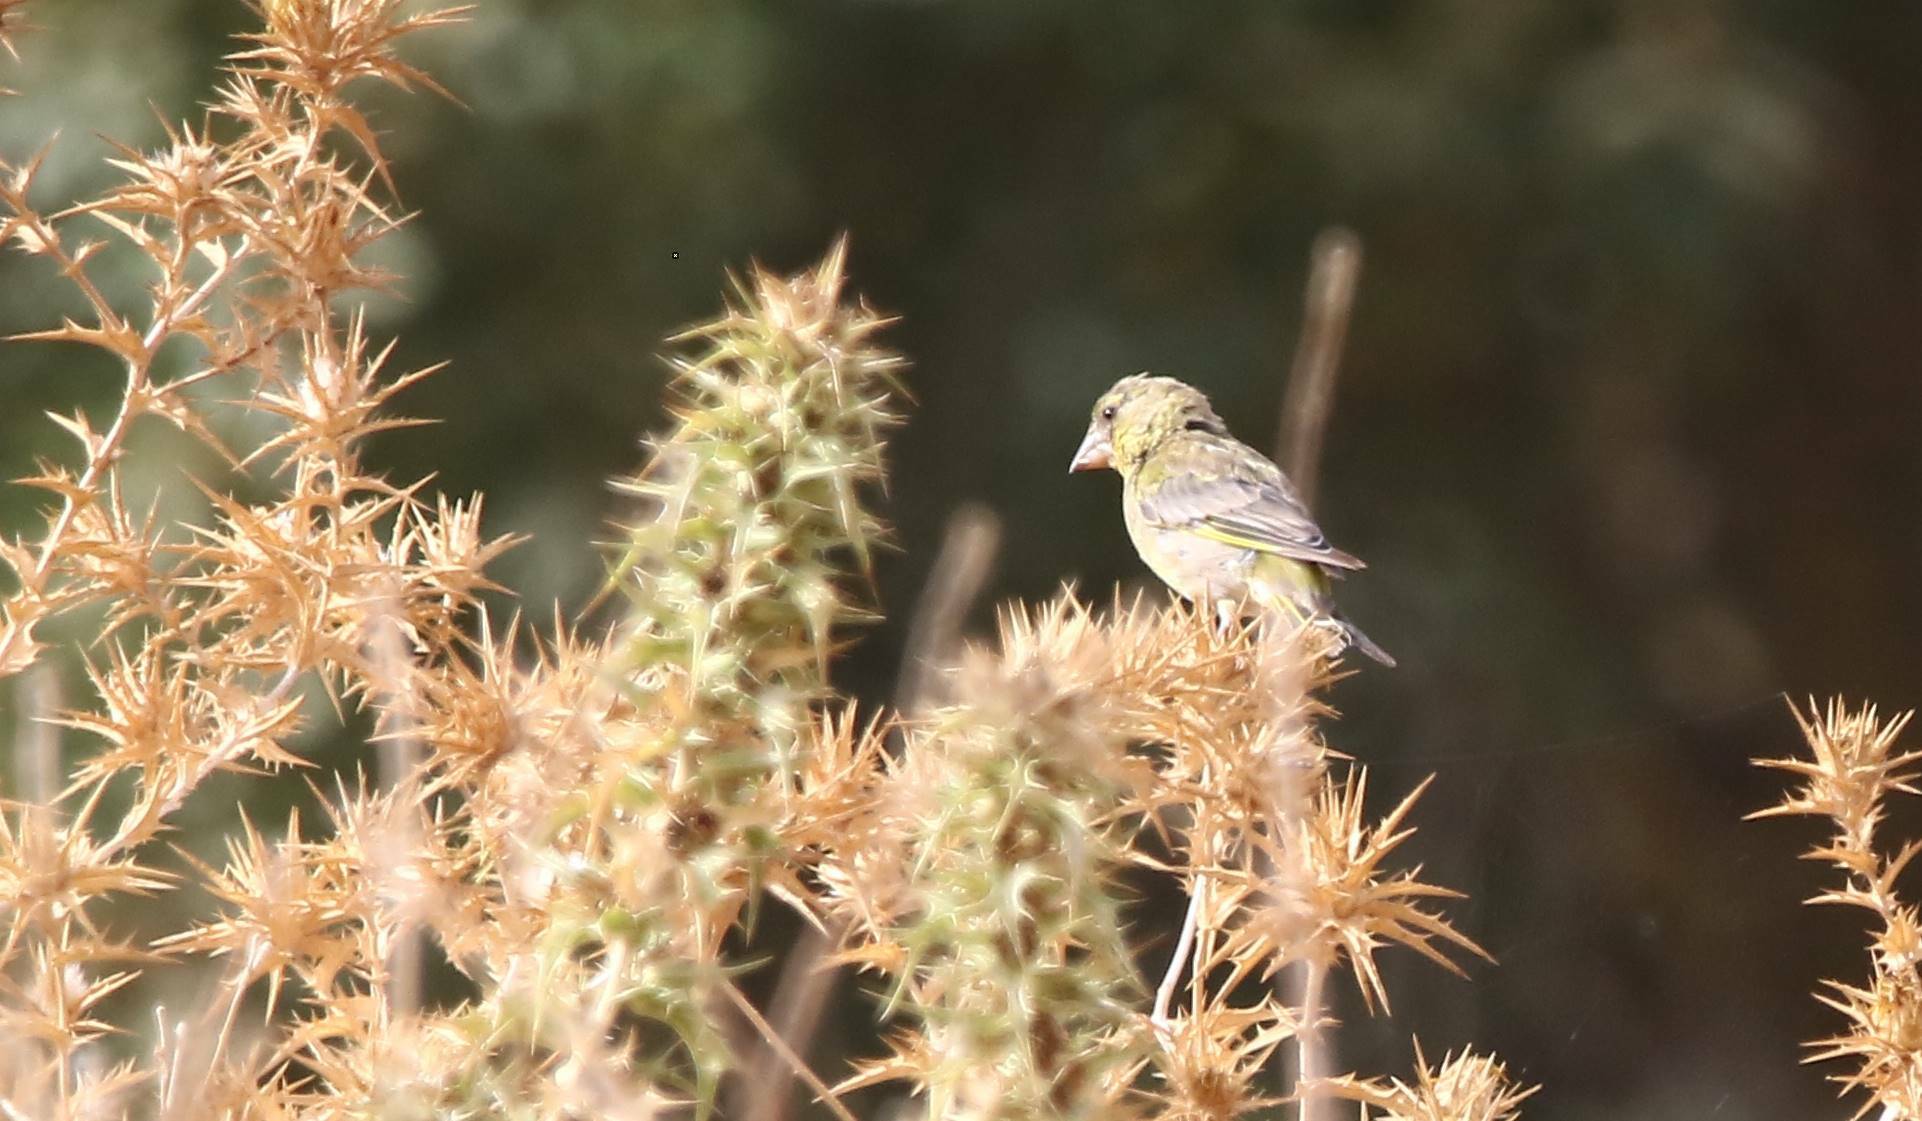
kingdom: Plantae
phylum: Tracheophyta
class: Liliopsida
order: Poales
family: Poaceae
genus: Chloris
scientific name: Chloris chloris
